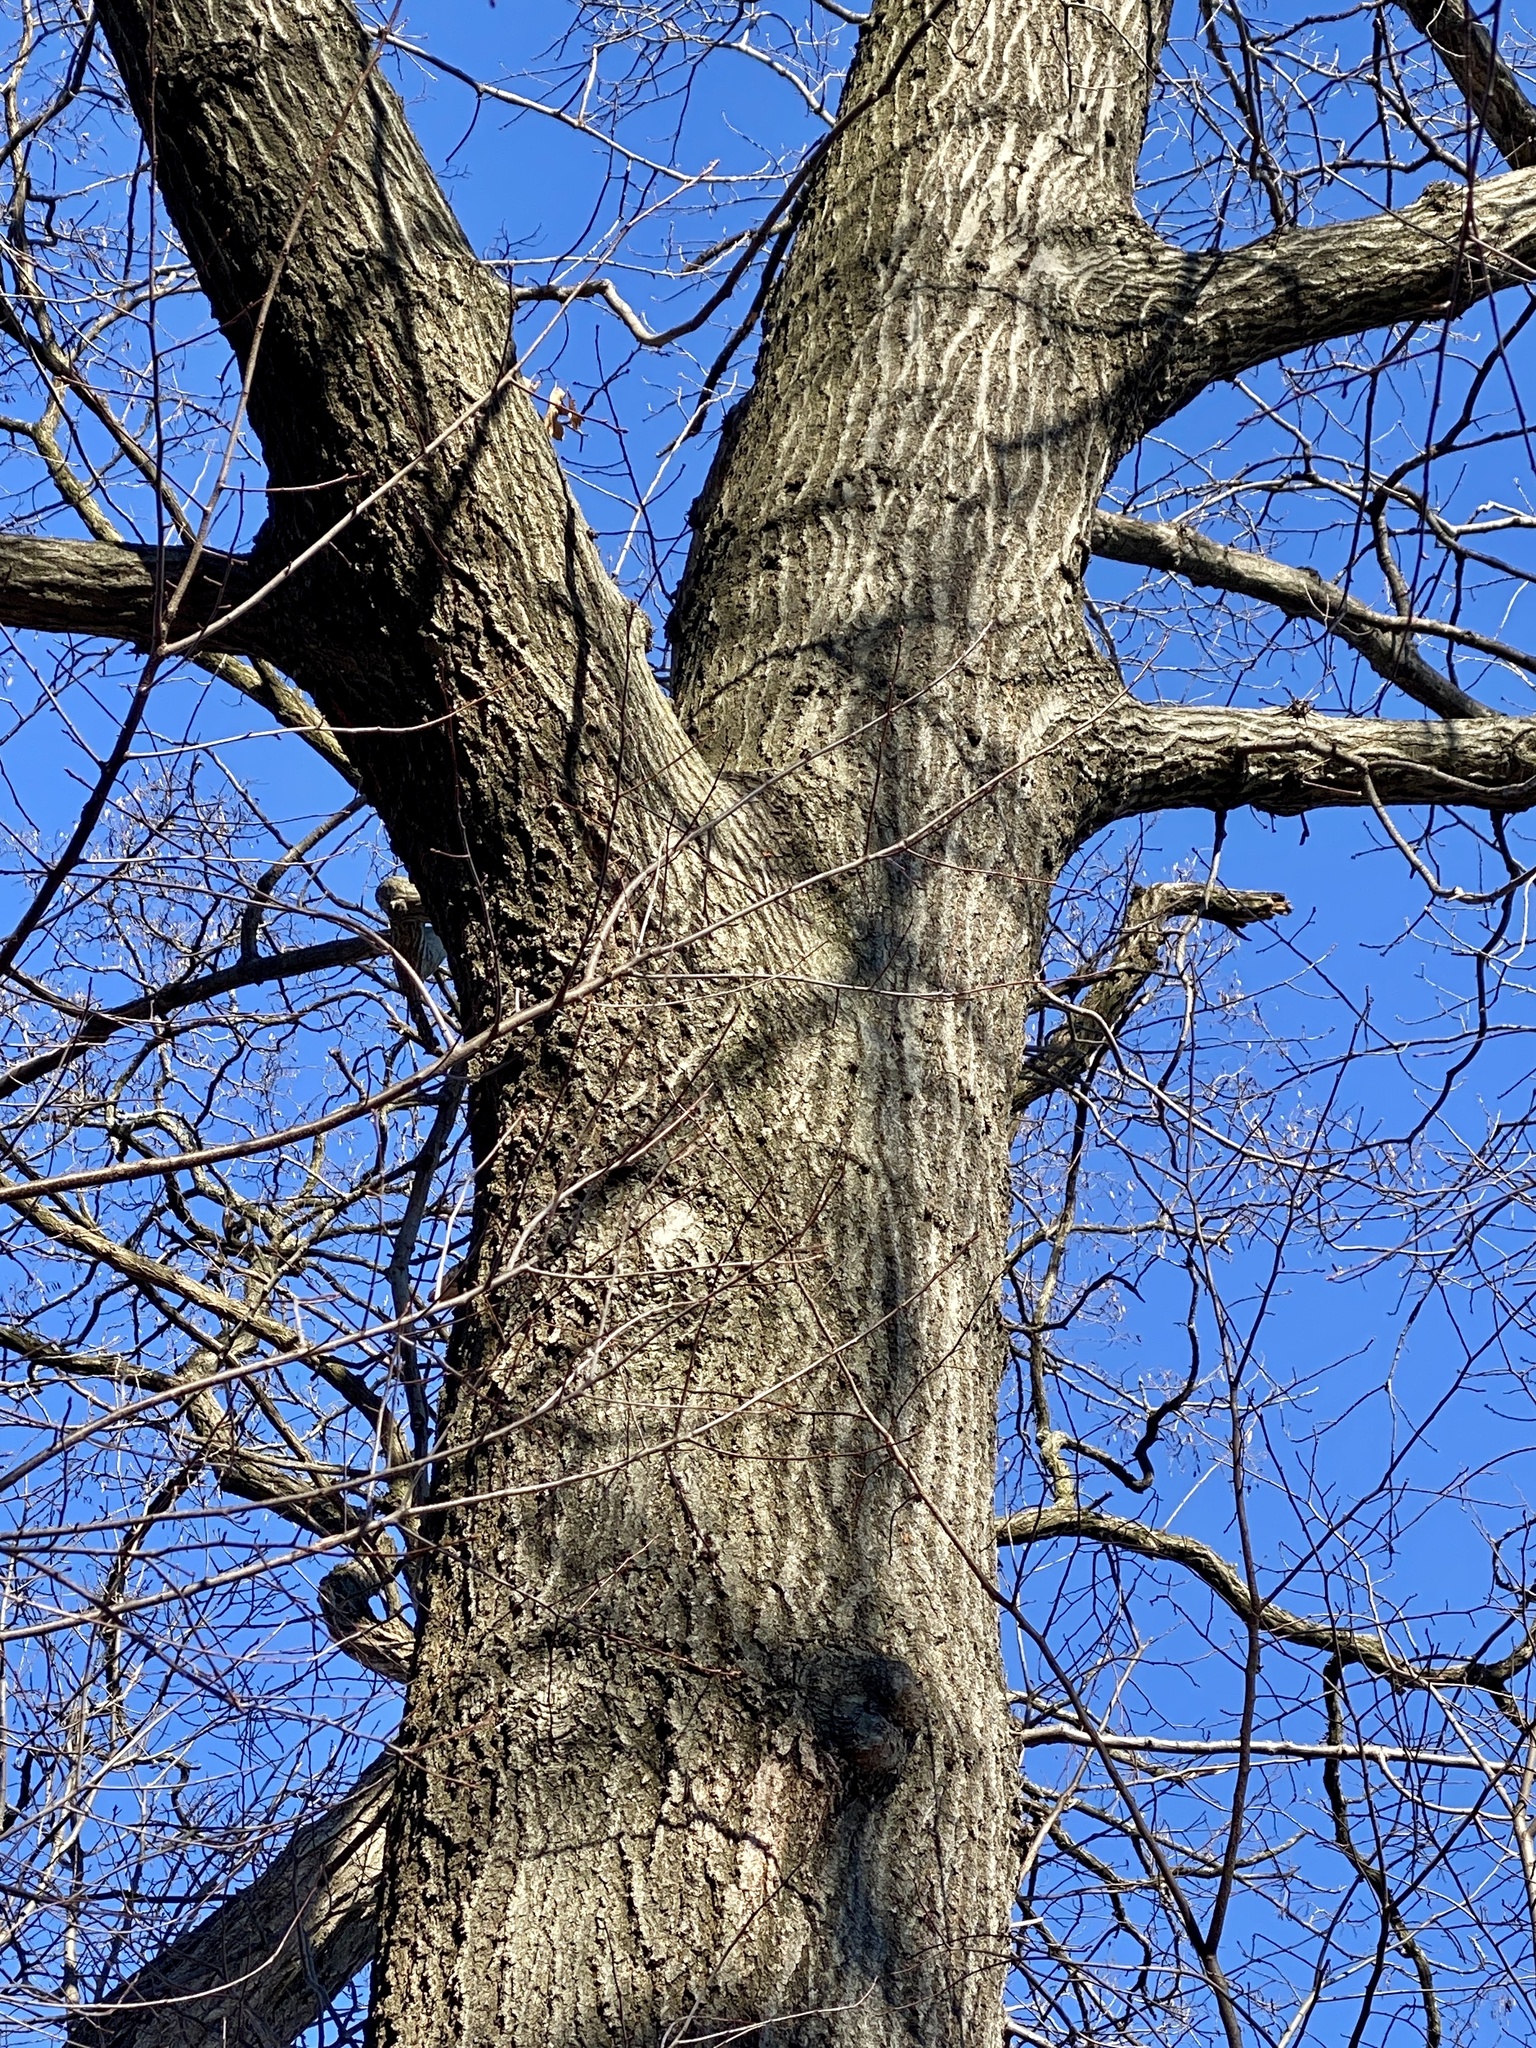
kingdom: Plantae
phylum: Tracheophyta
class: Magnoliopsida
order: Fagales
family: Fagaceae
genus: Quercus
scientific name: Quercus rubra
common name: Red oak
